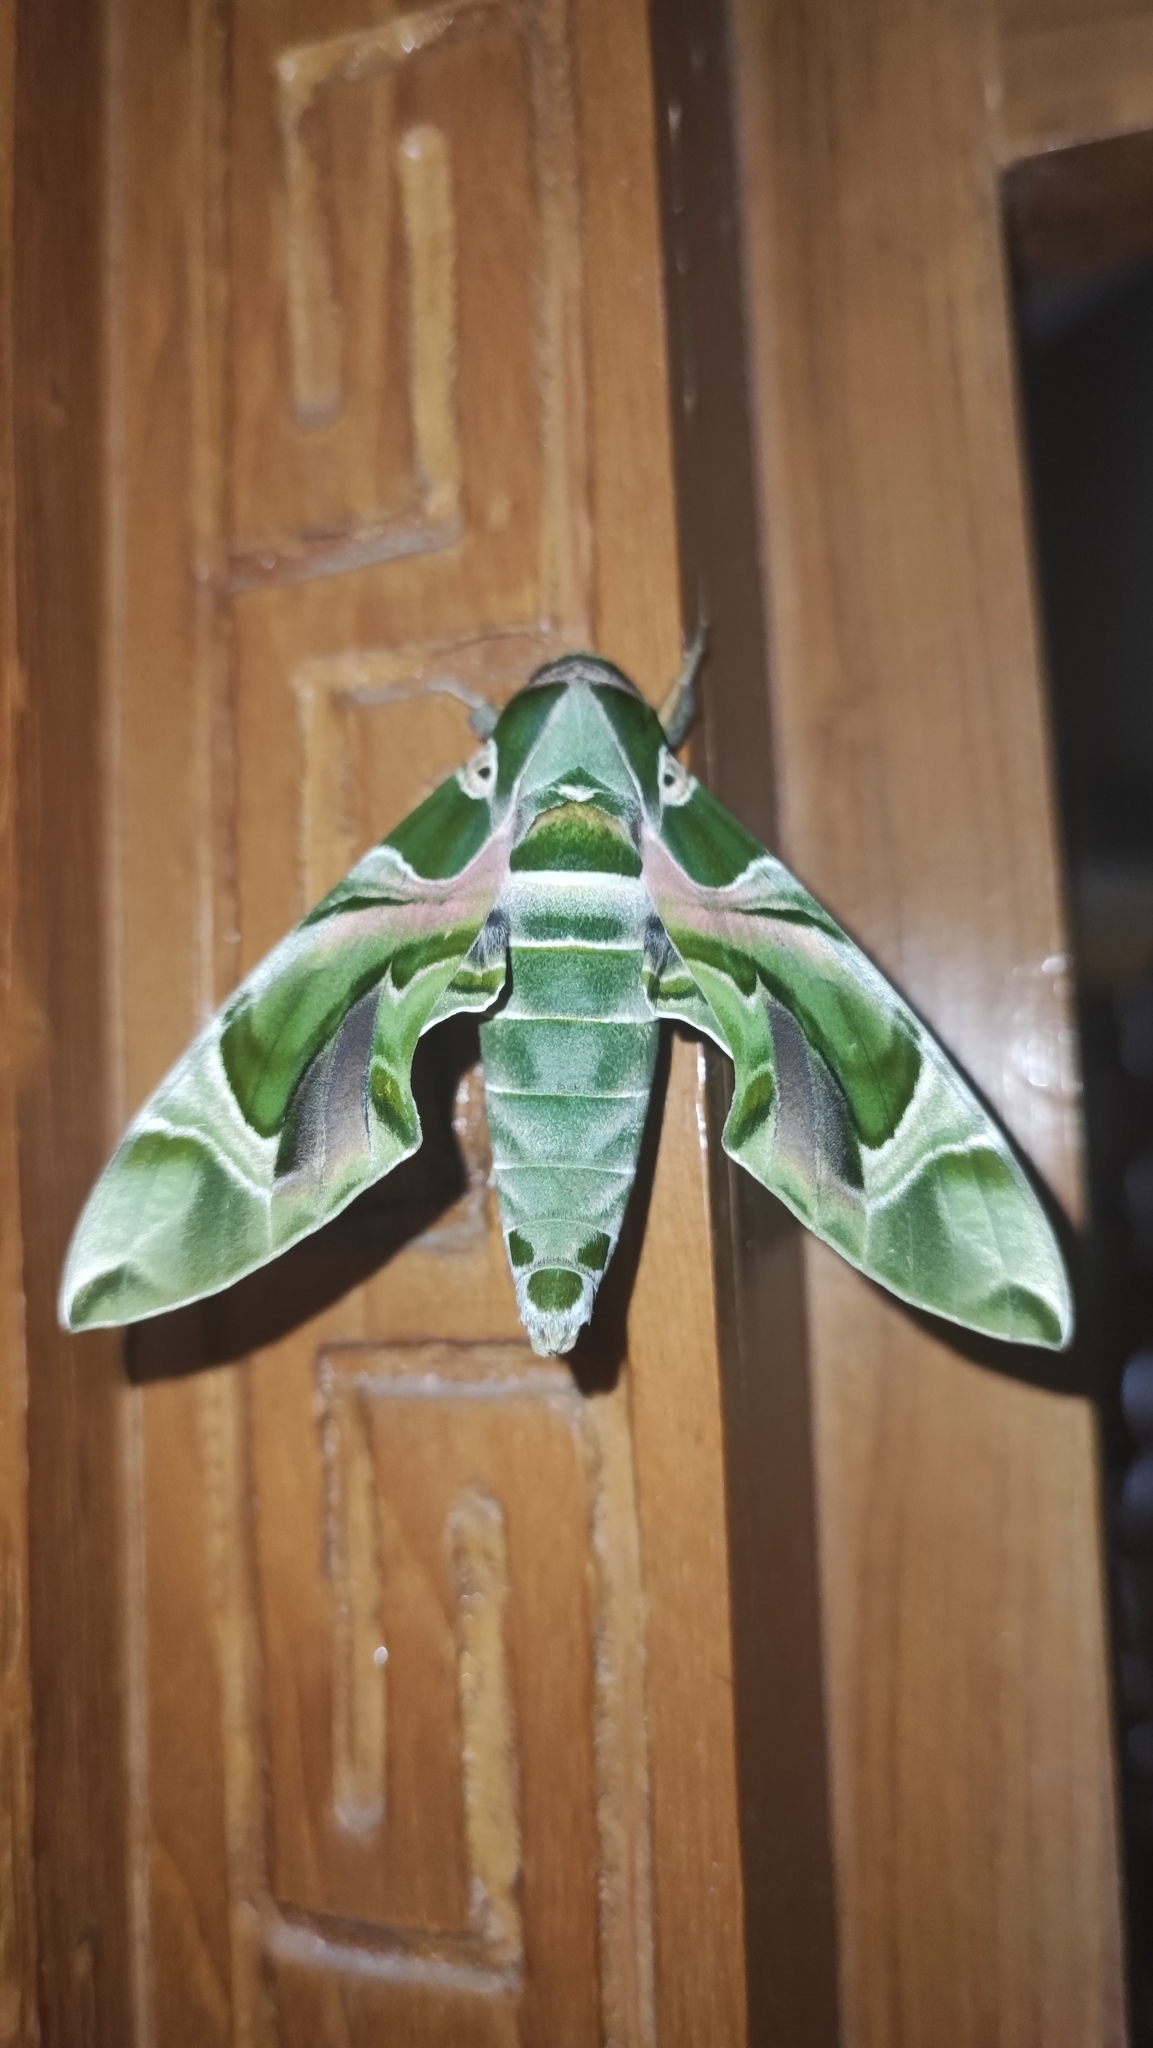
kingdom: Animalia
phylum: Arthropoda
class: Insecta
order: Lepidoptera
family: Sphingidae
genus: Daphnis
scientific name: Daphnis nerii
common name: Oleander hawk-moth
